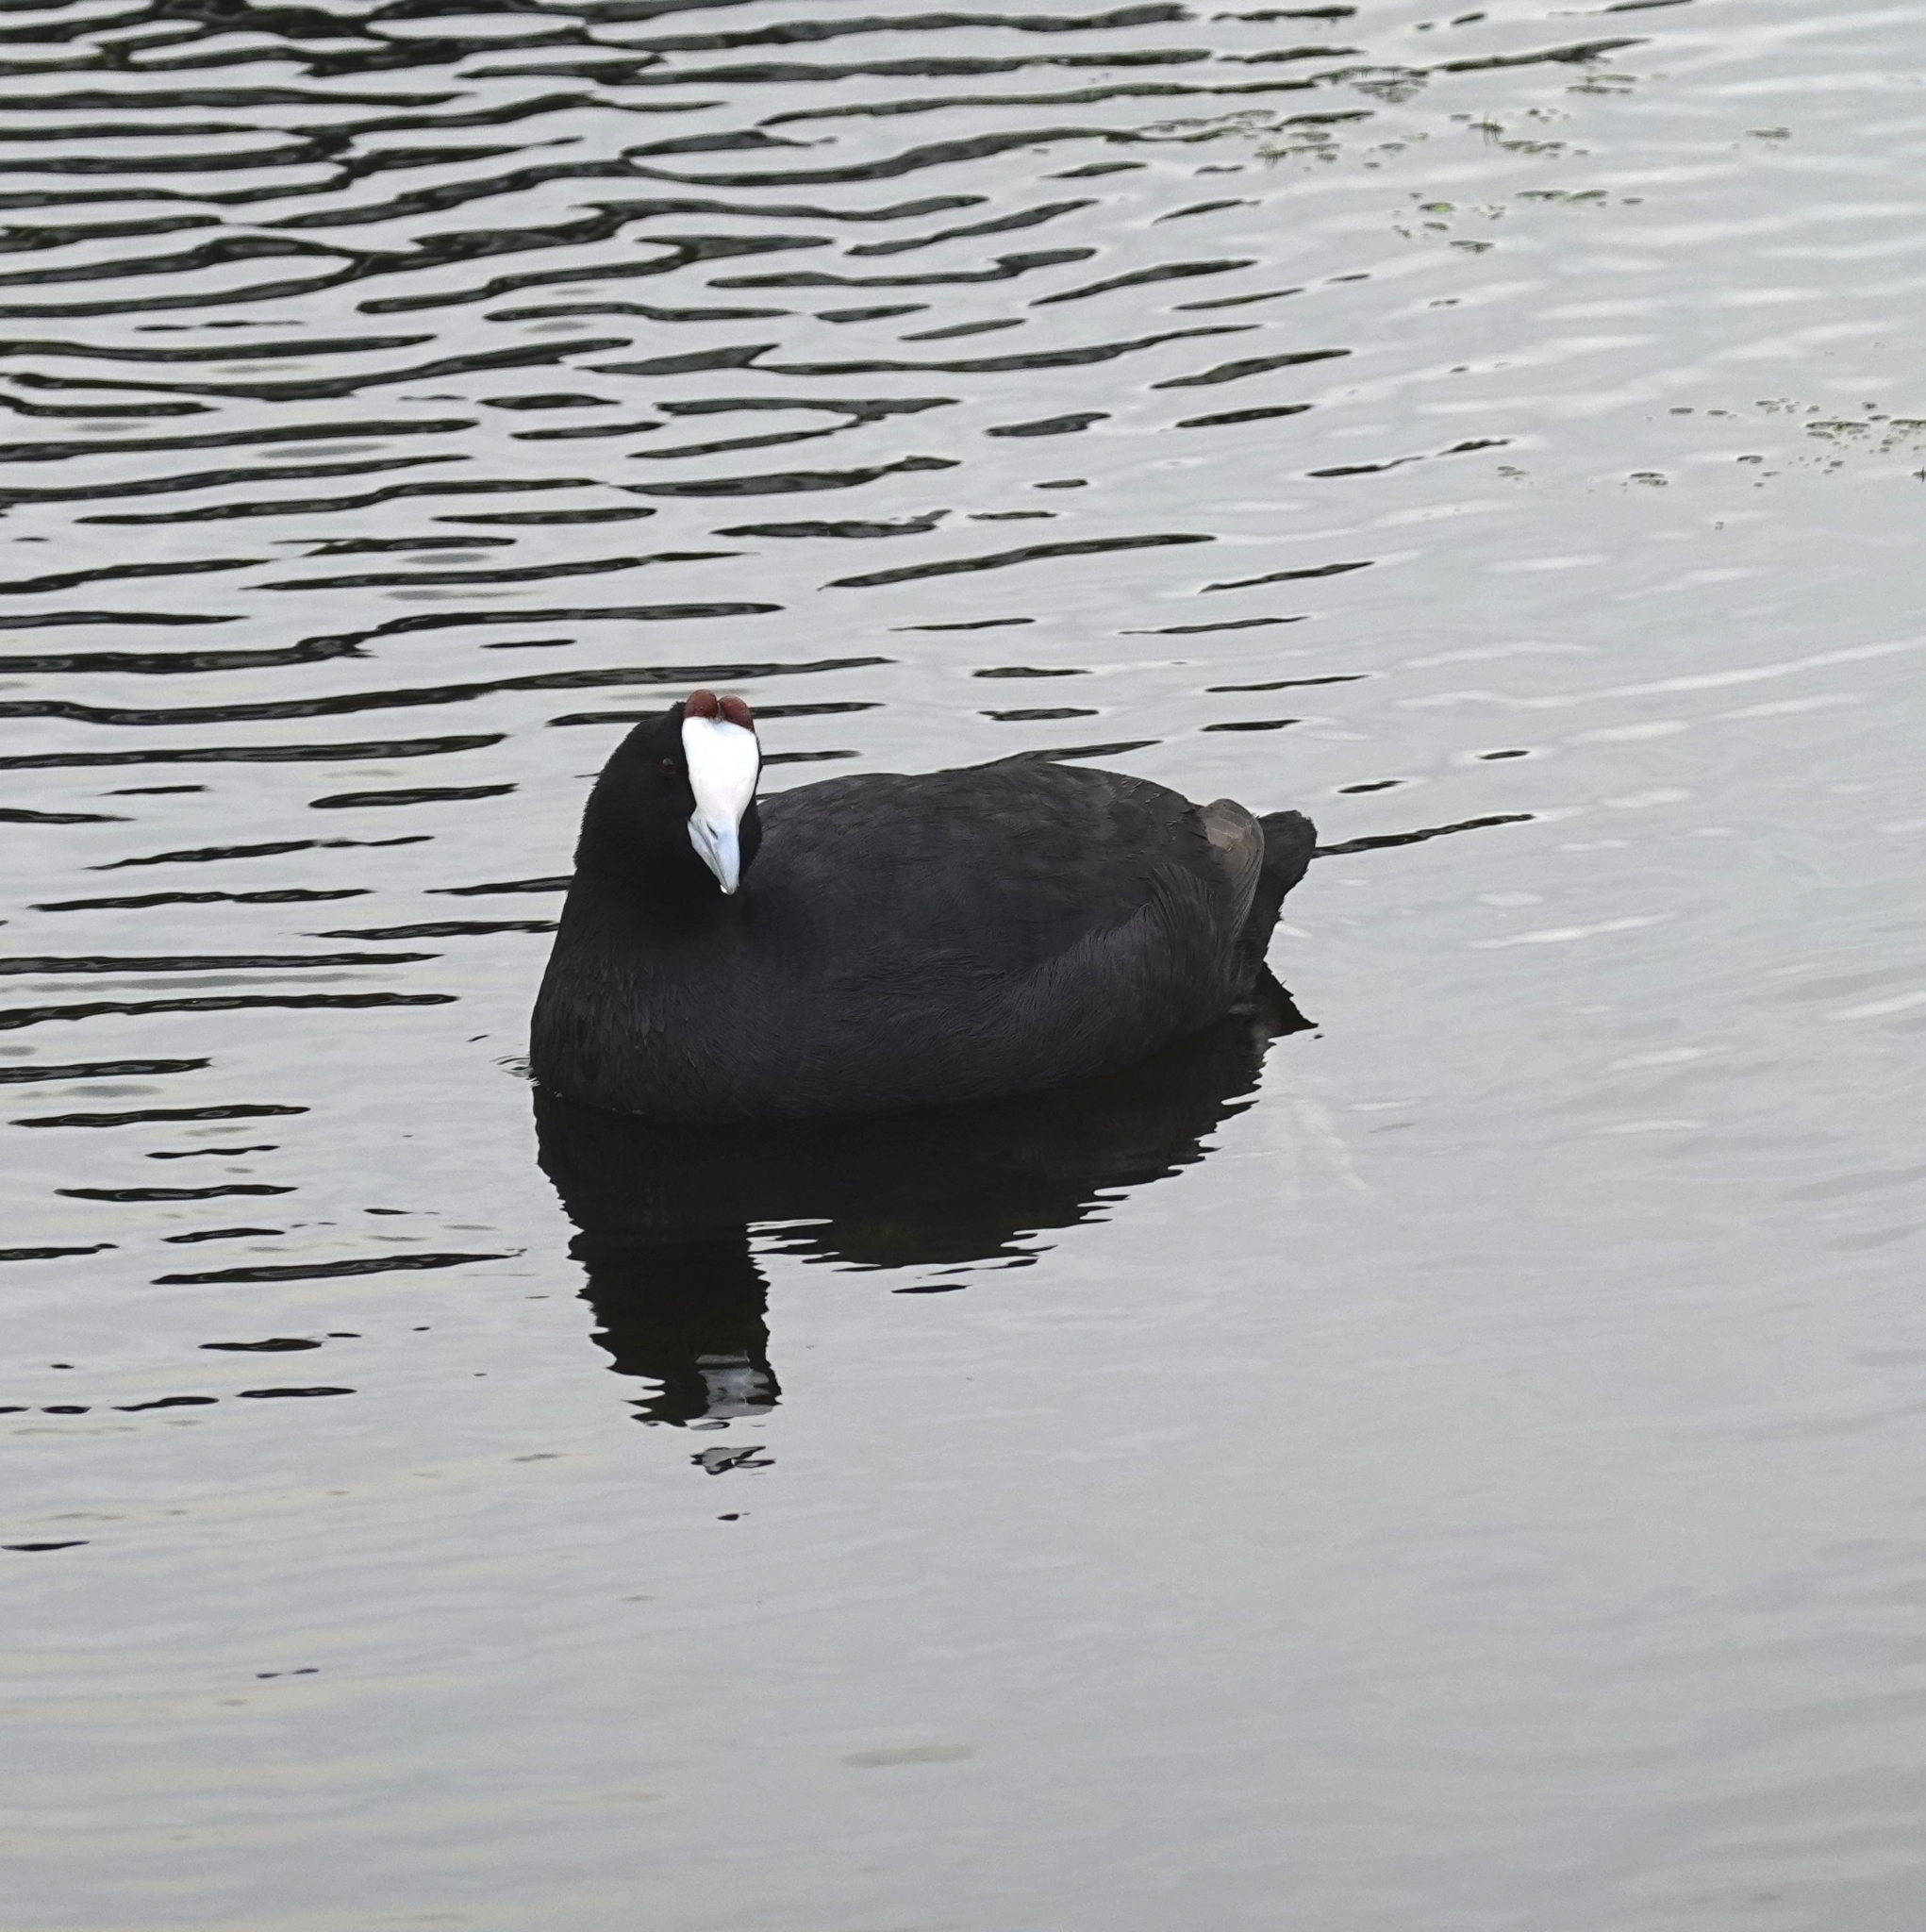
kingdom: Animalia
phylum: Chordata
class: Aves
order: Gruiformes
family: Rallidae
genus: Fulica
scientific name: Fulica cristata
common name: Red-knobbed coot
